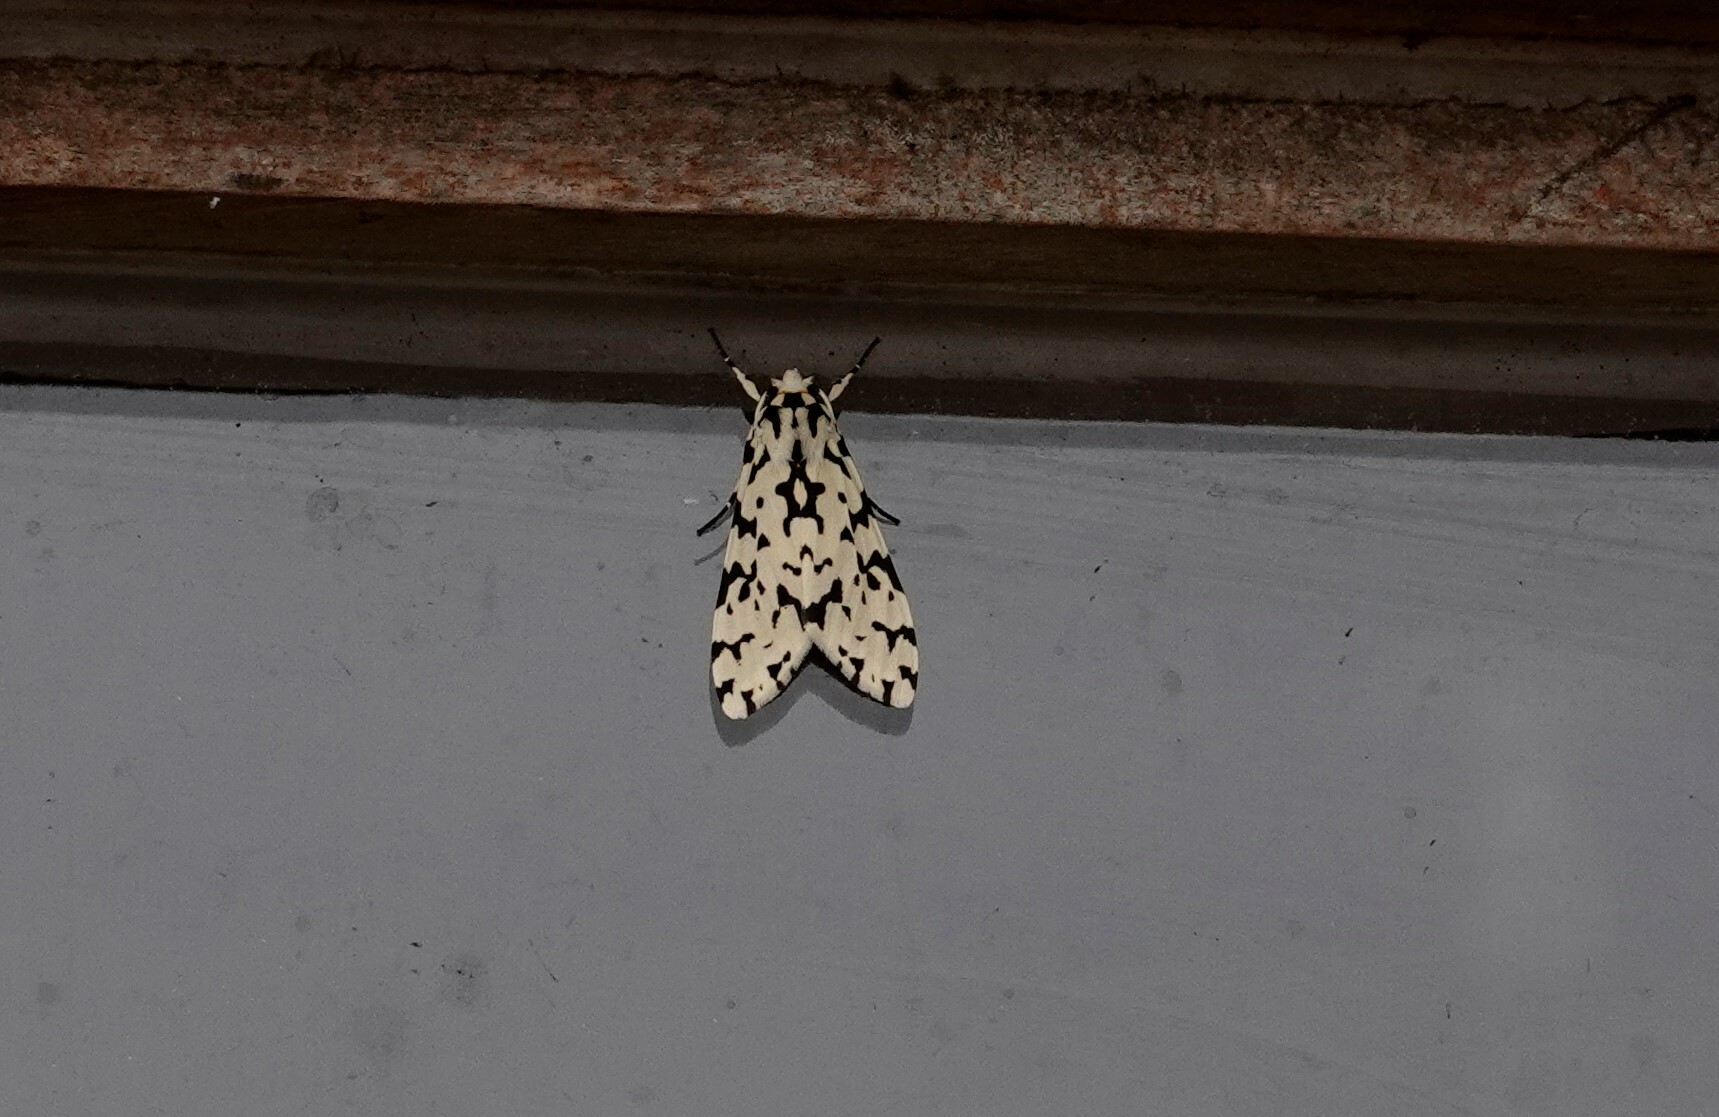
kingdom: Animalia
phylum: Arthropoda
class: Insecta
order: Lepidoptera
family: Erebidae
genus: Eucereon
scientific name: Eucereon tigrata
